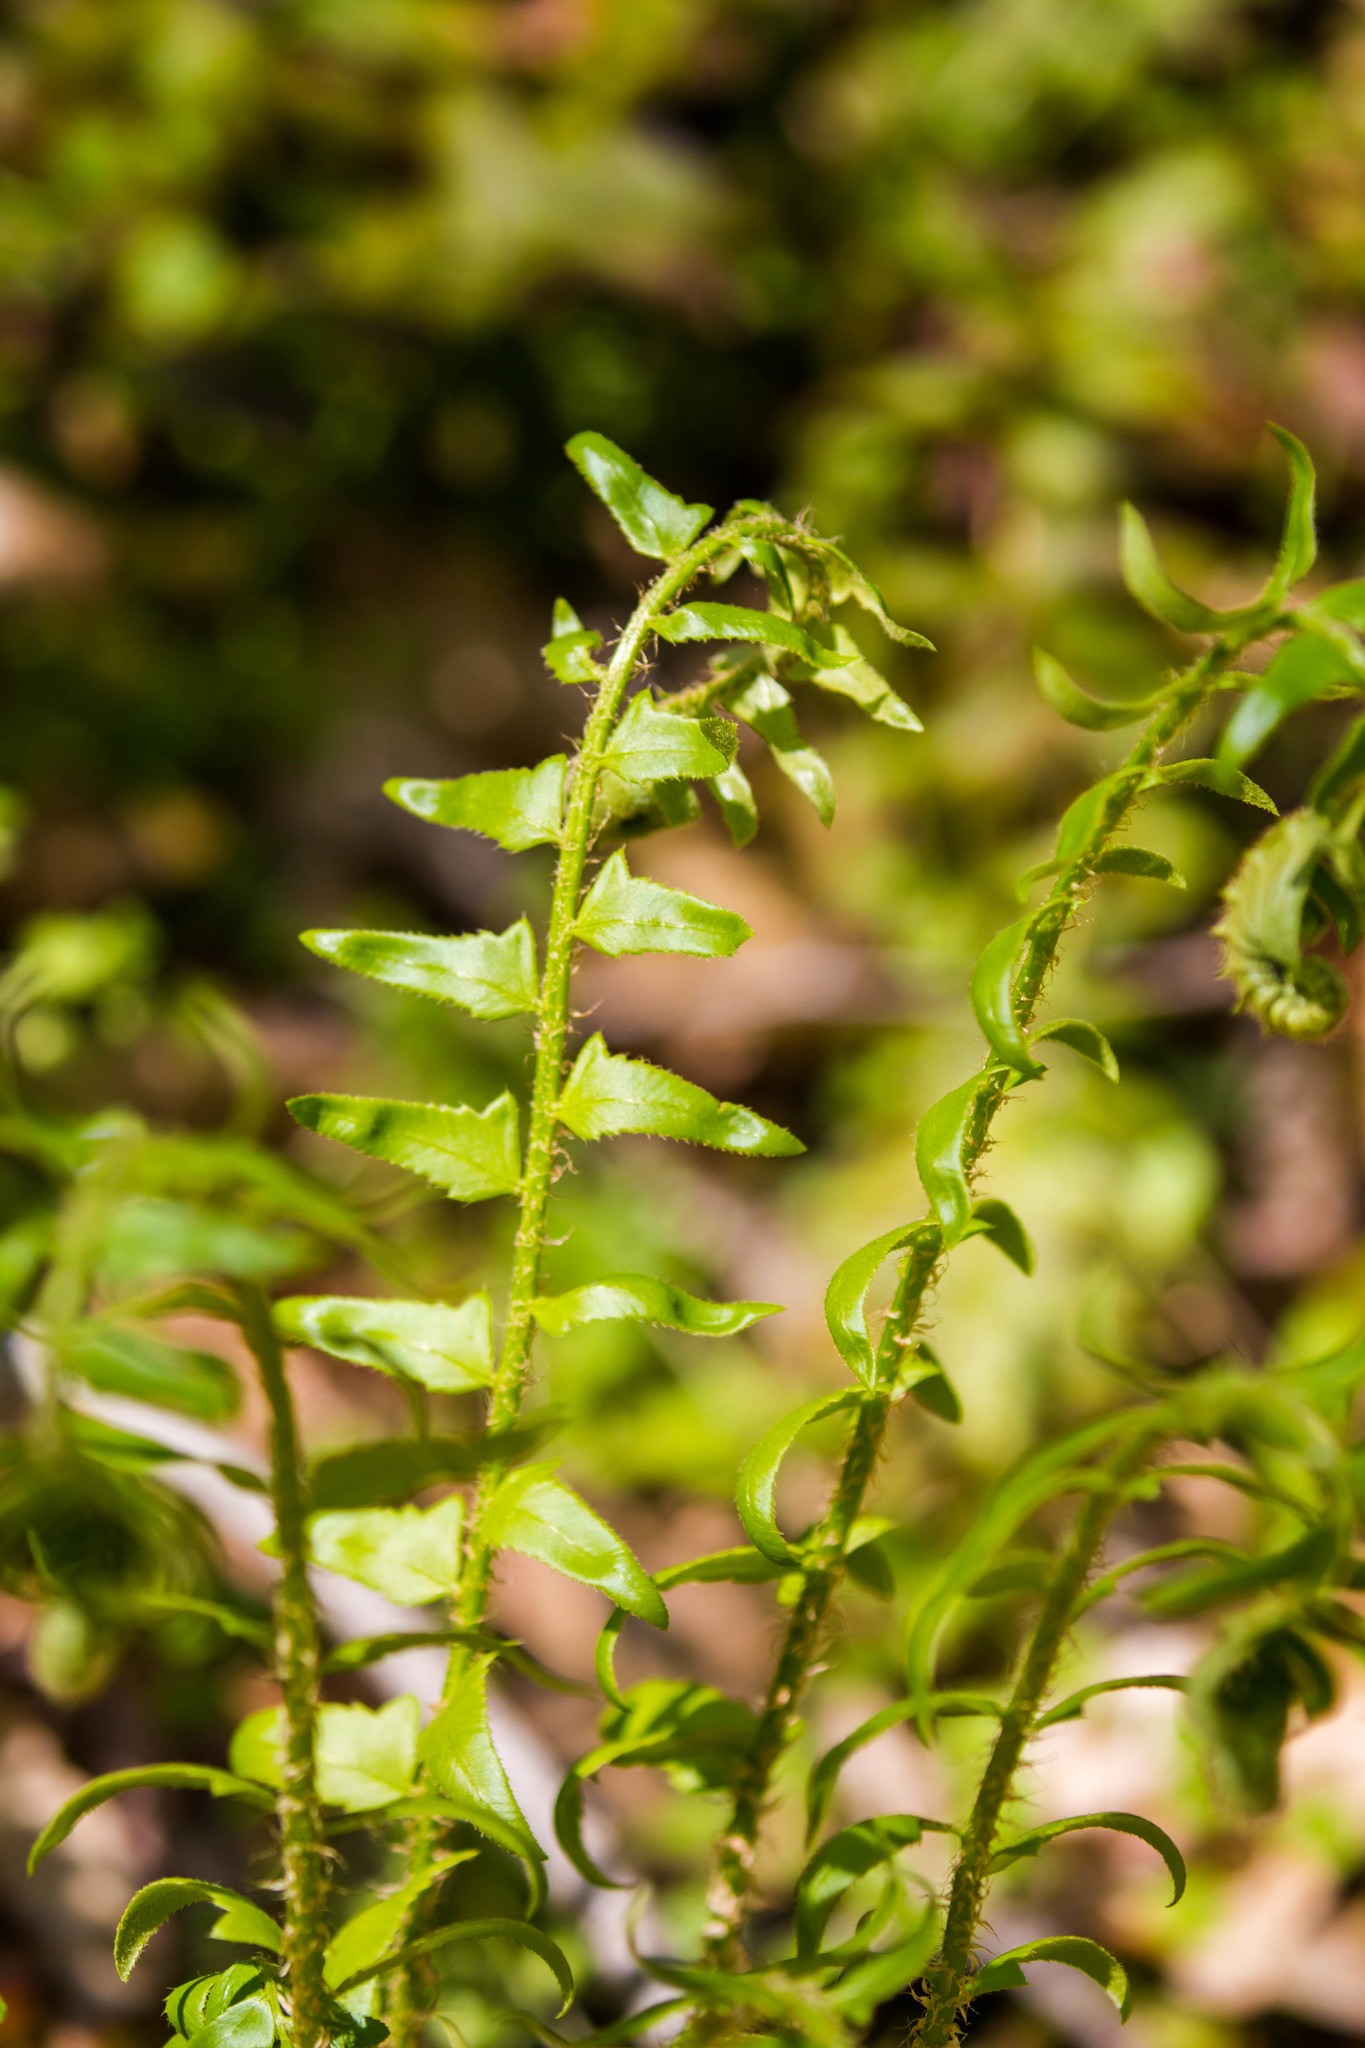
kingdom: Plantae
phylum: Tracheophyta
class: Polypodiopsida
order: Polypodiales
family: Dryopteridaceae
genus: Polystichum
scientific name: Polystichum acrostichoides
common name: Christmas fern
